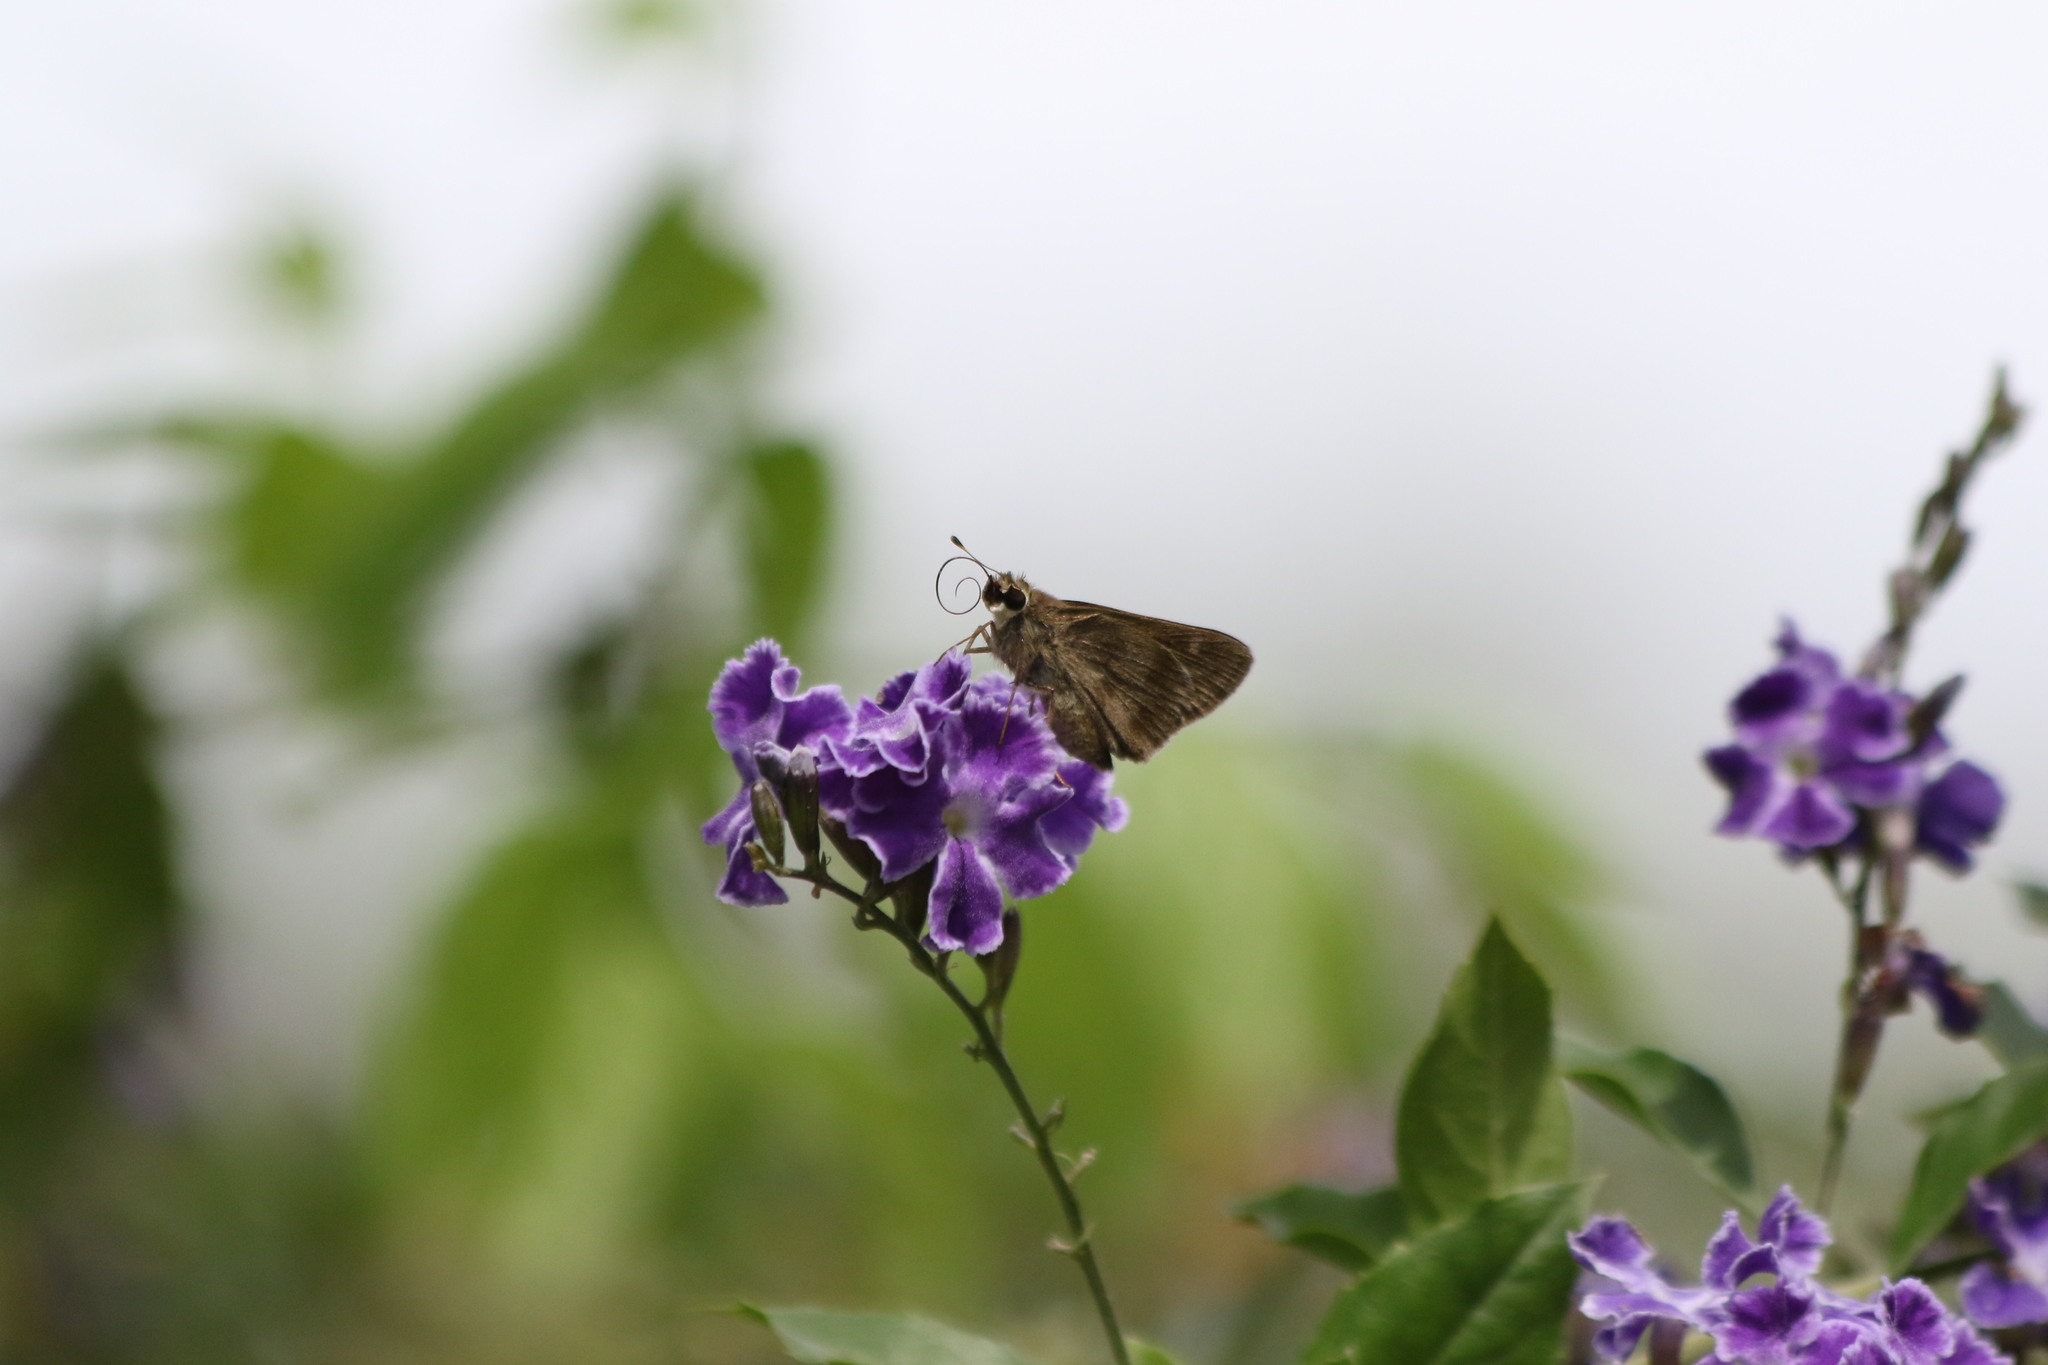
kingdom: Animalia
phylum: Arthropoda
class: Insecta
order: Lepidoptera
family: Hesperiidae
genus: Polites
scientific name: Polites vibex
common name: Whirlabout
